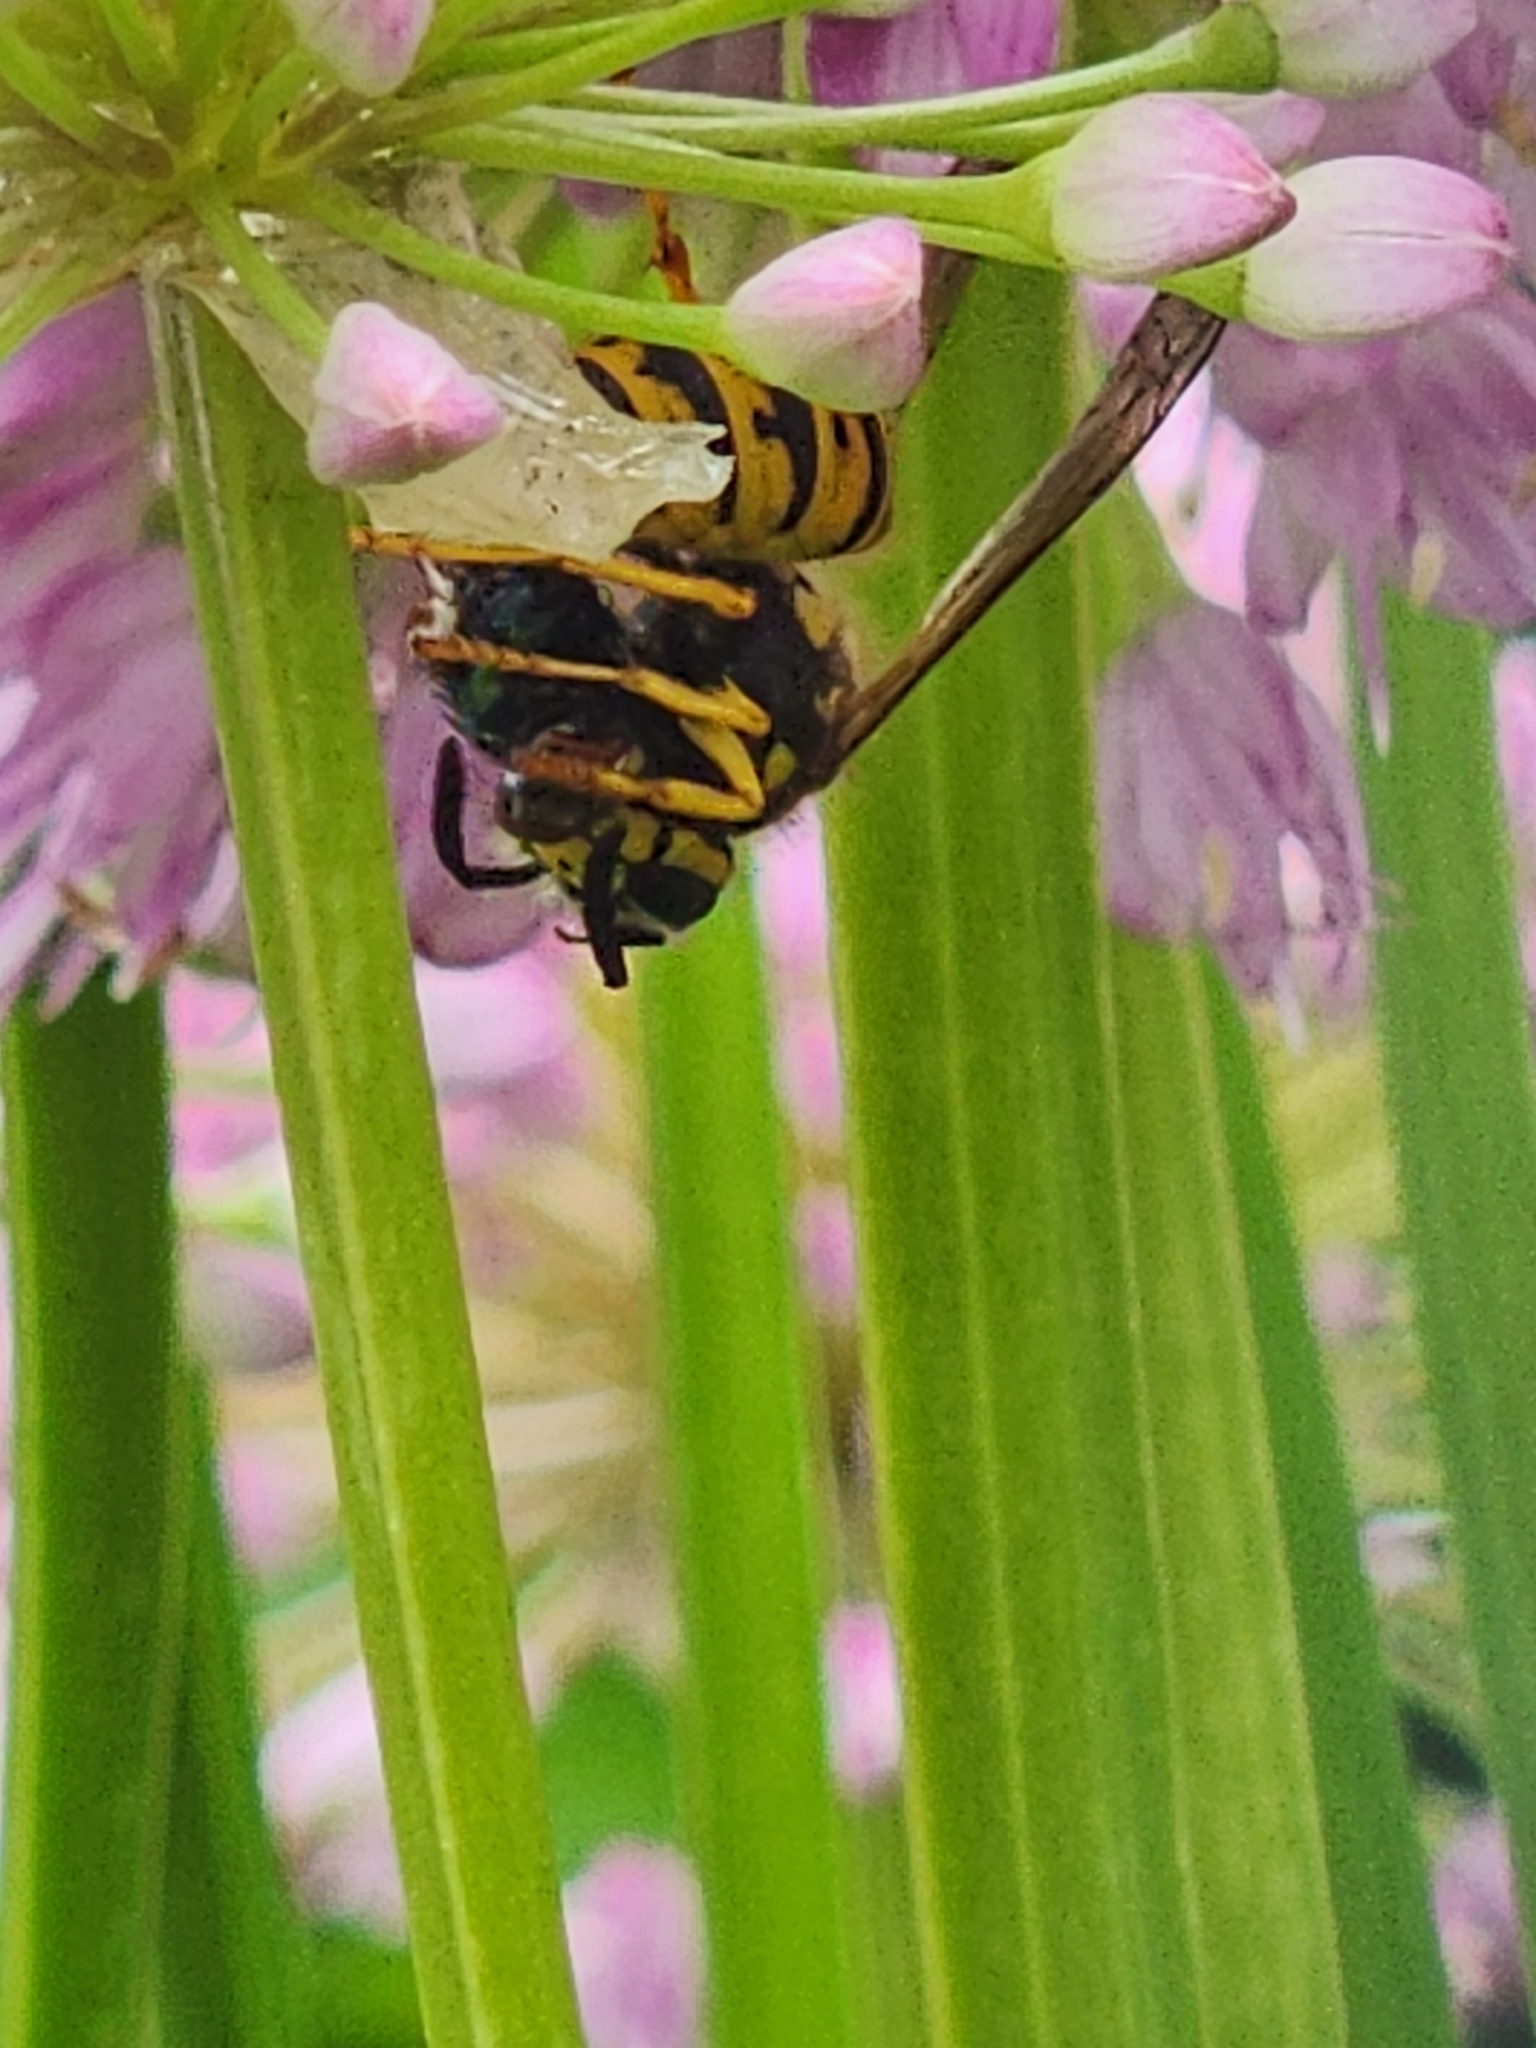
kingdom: Animalia
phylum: Arthropoda
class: Insecta
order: Hymenoptera
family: Vespidae
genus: Vespula
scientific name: Vespula
